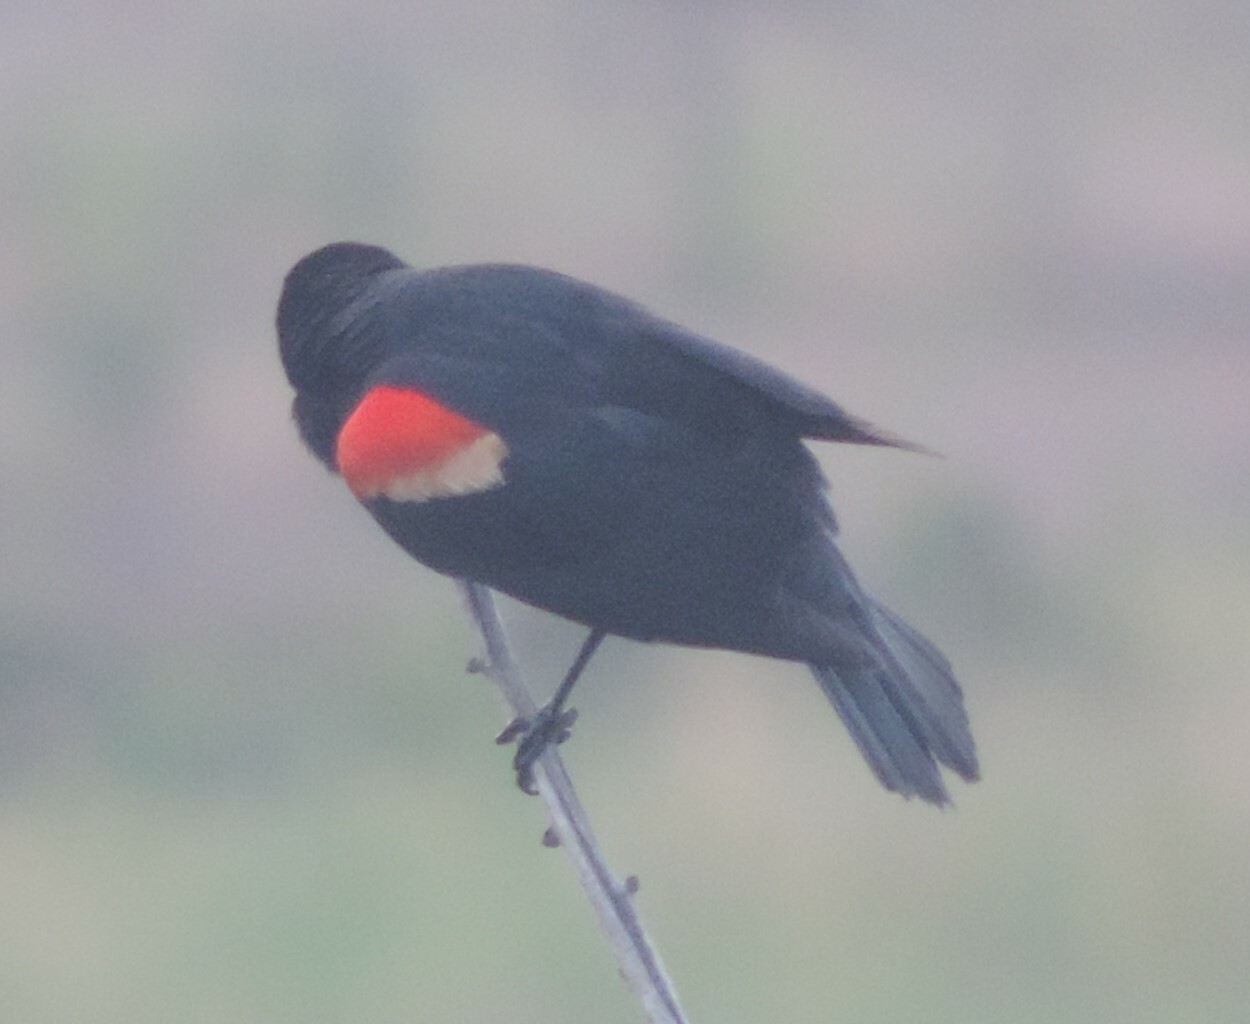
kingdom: Animalia
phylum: Chordata
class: Aves
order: Passeriformes
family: Icteridae
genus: Agelaius
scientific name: Agelaius phoeniceus
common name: Red-winged blackbird
